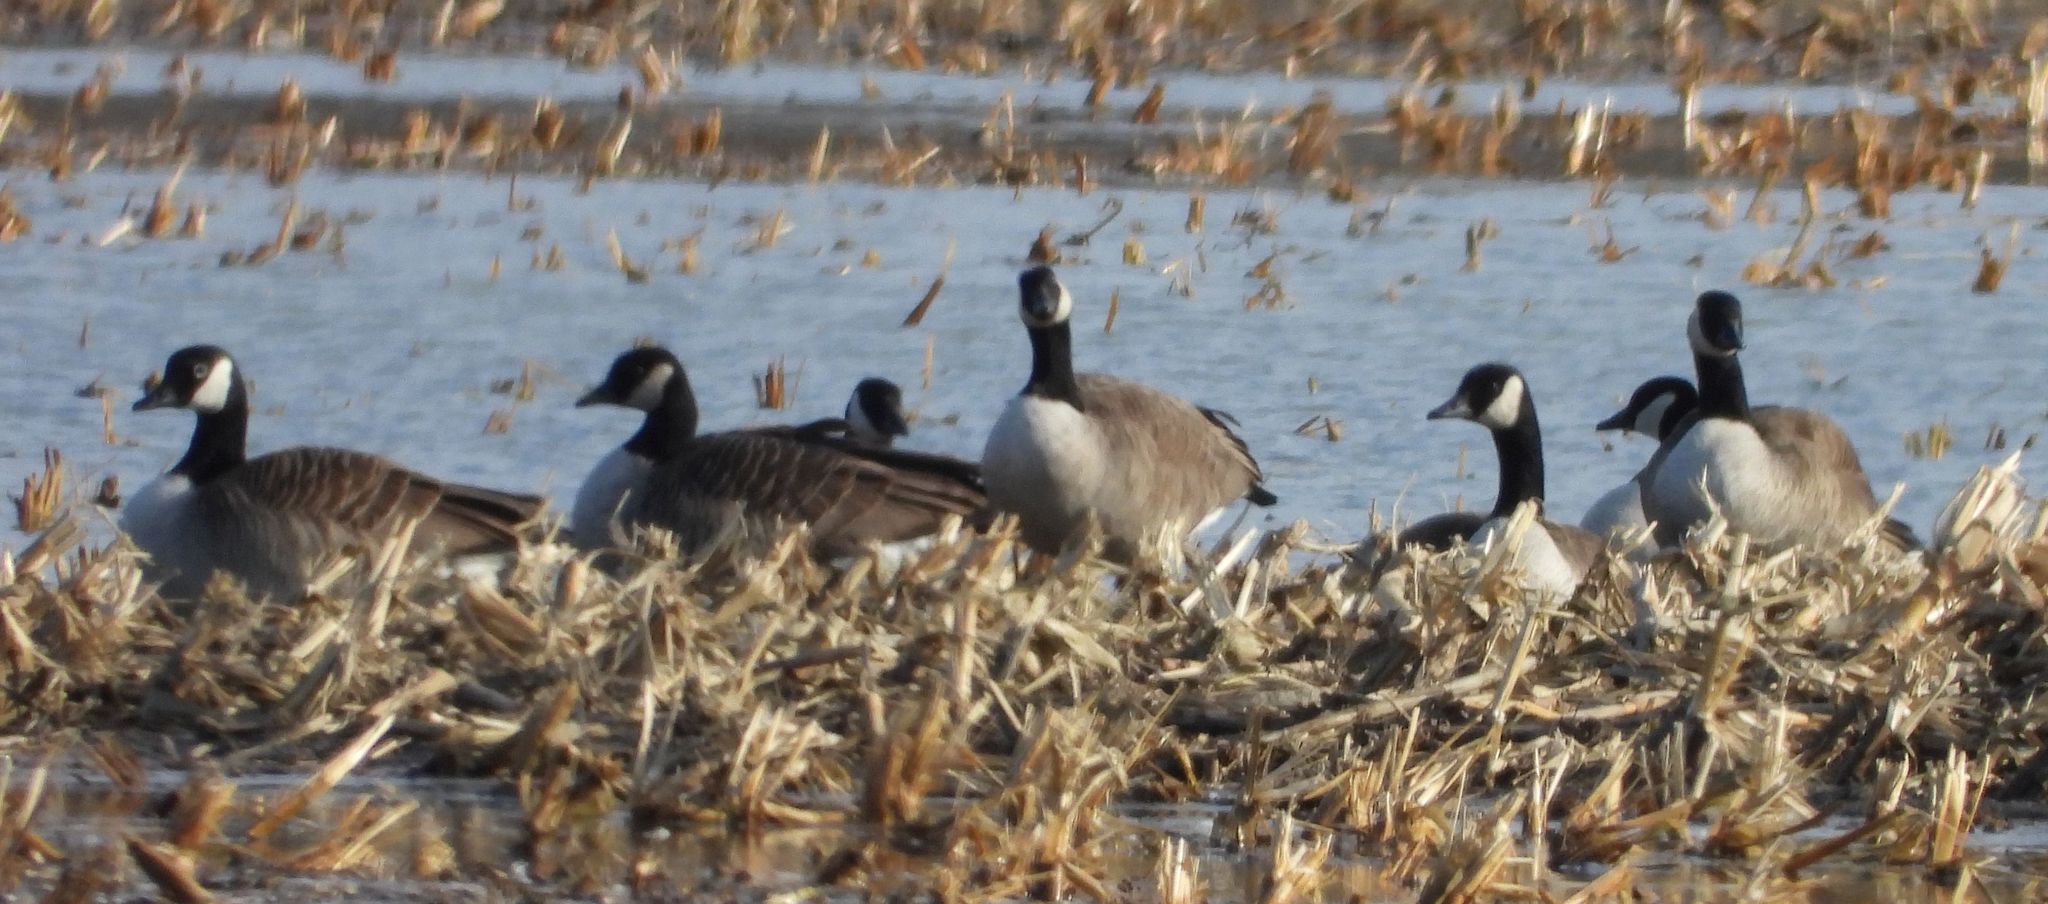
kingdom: Animalia
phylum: Chordata
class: Aves
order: Anseriformes
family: Anatidae
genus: Branta
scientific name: Branta canadensis
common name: Canada goose
